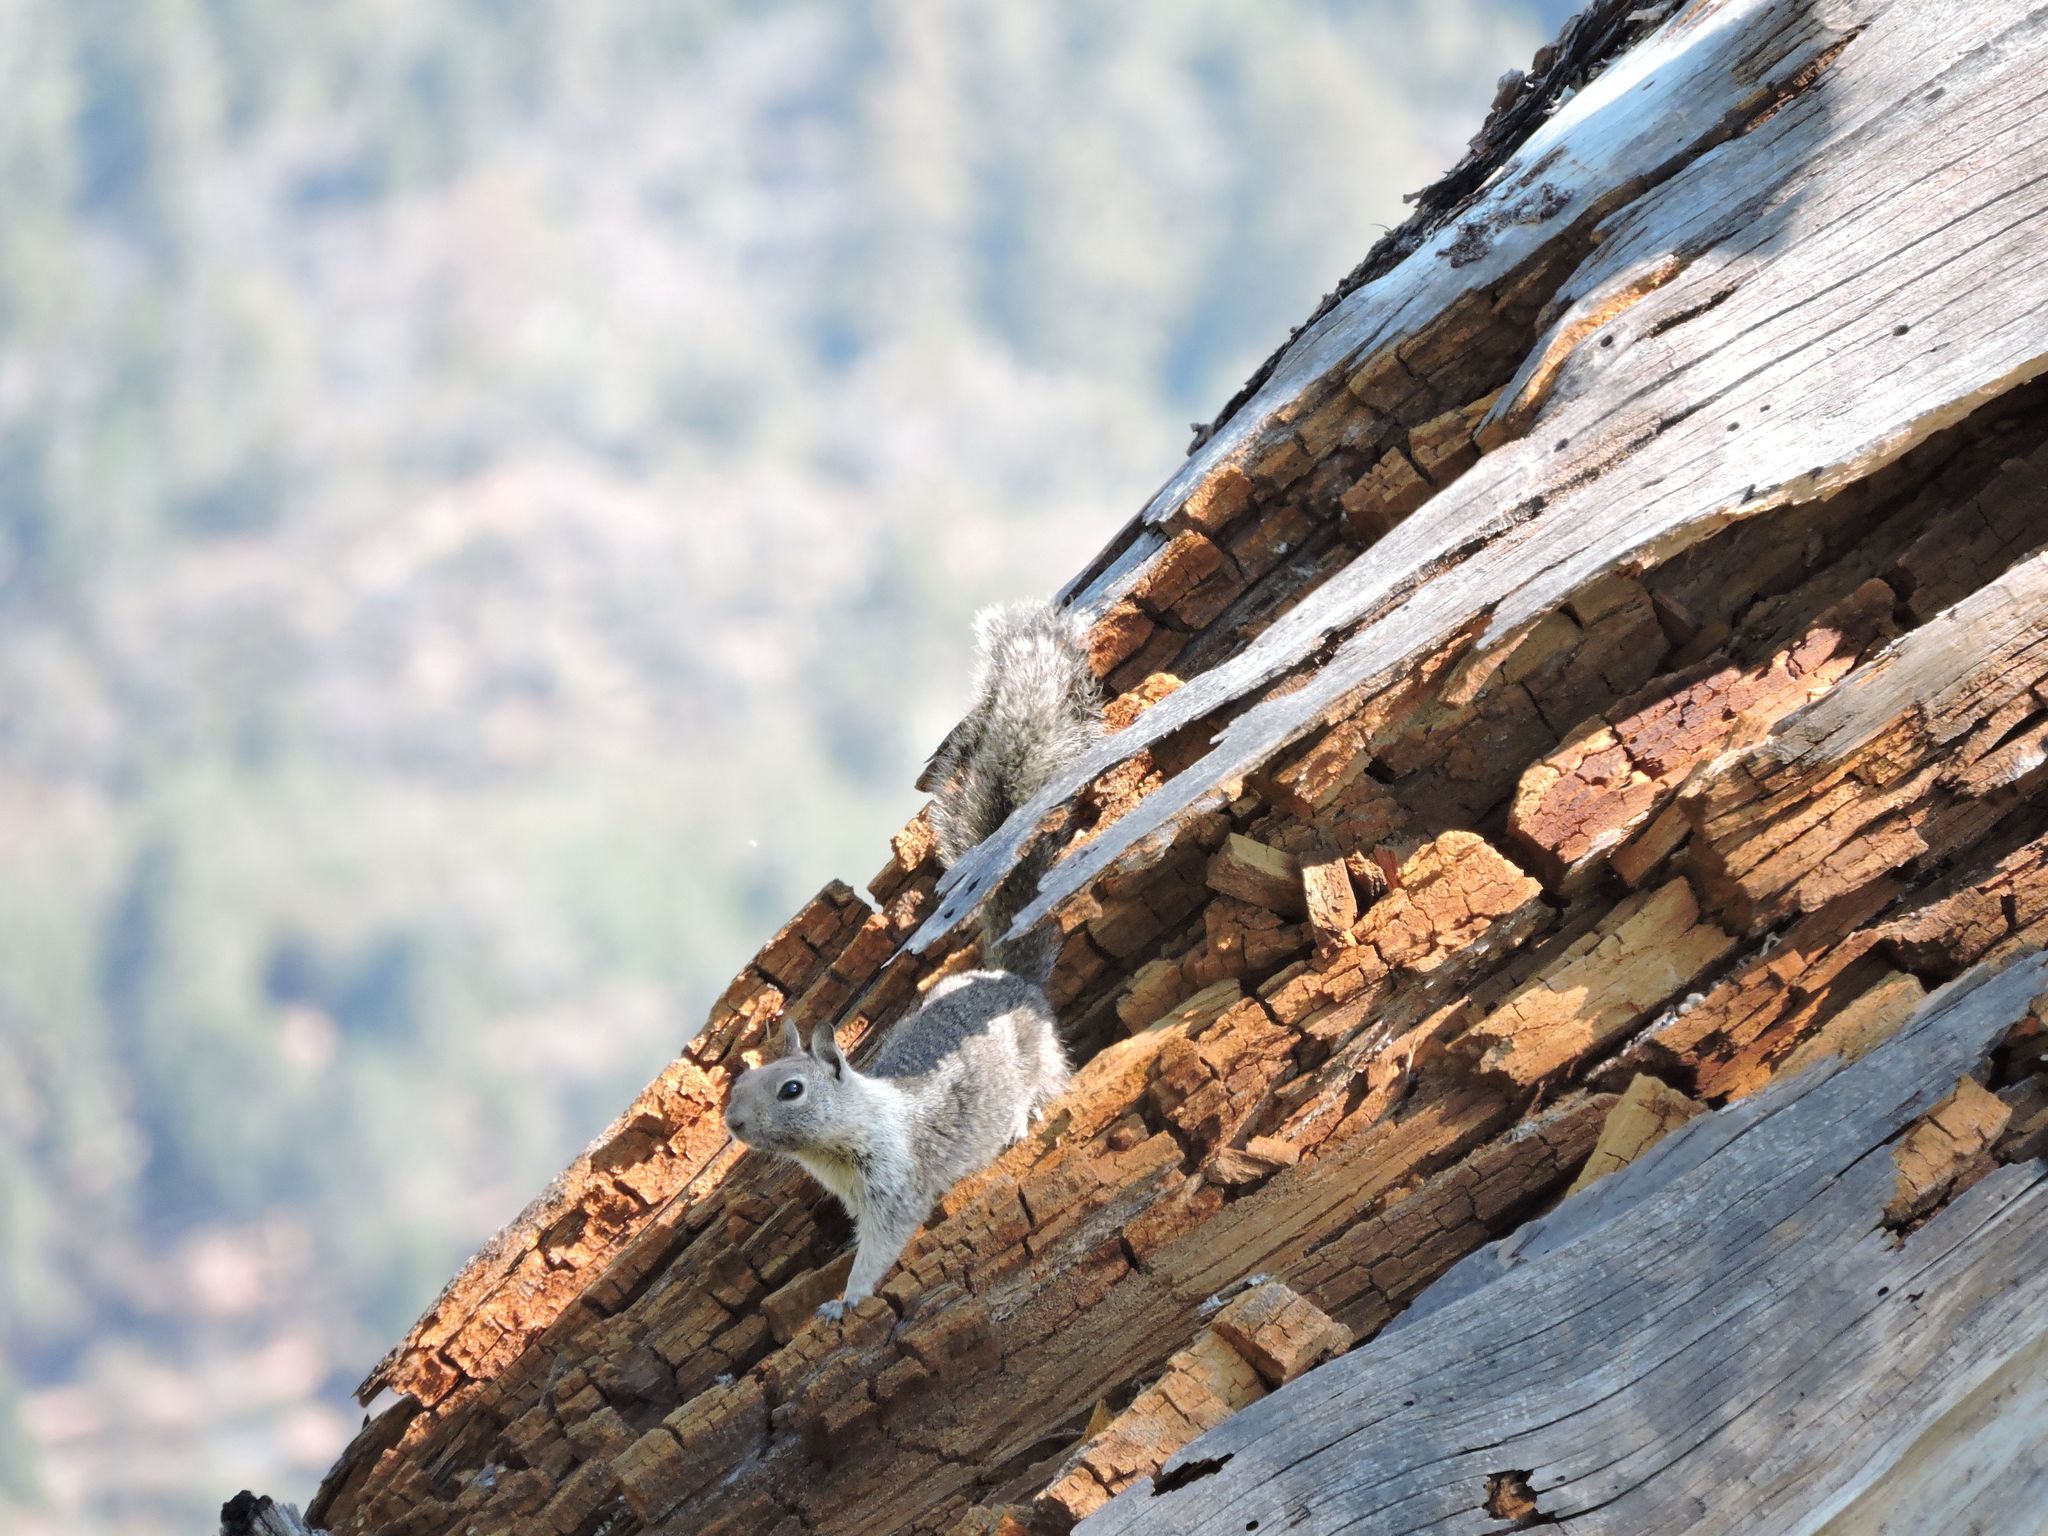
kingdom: Animalia
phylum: Chordata
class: Mammalia
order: Rodentia
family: Sciuridae
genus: Otospermophilus
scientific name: Otospermophilus beecheyi
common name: California ground squirrel
